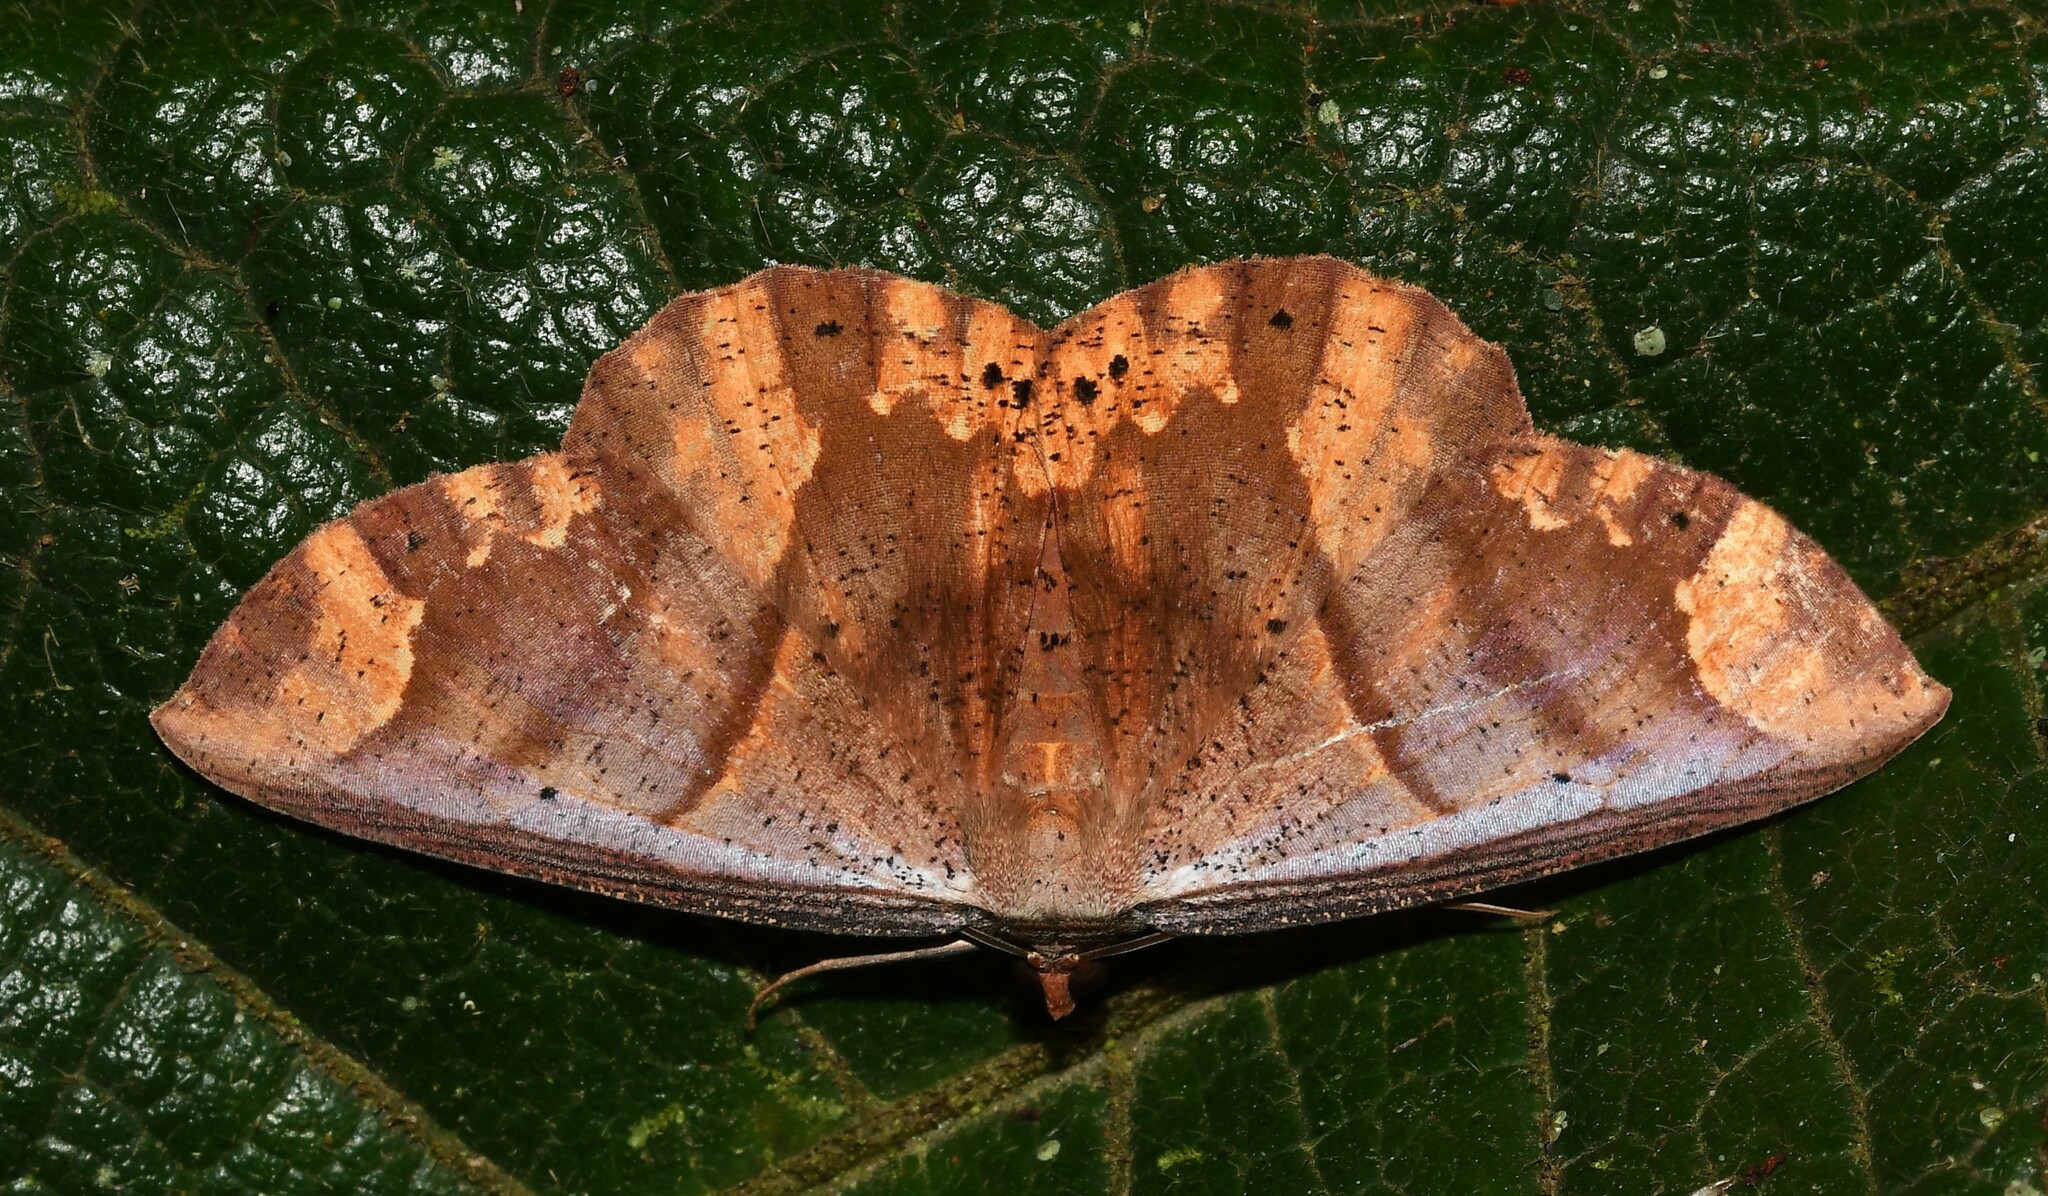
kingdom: Animalia
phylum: Arthropoda
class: Insecta
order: Lepidoptera
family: Geometridae
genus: Oenoptila
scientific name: Oenoptila violacearia
